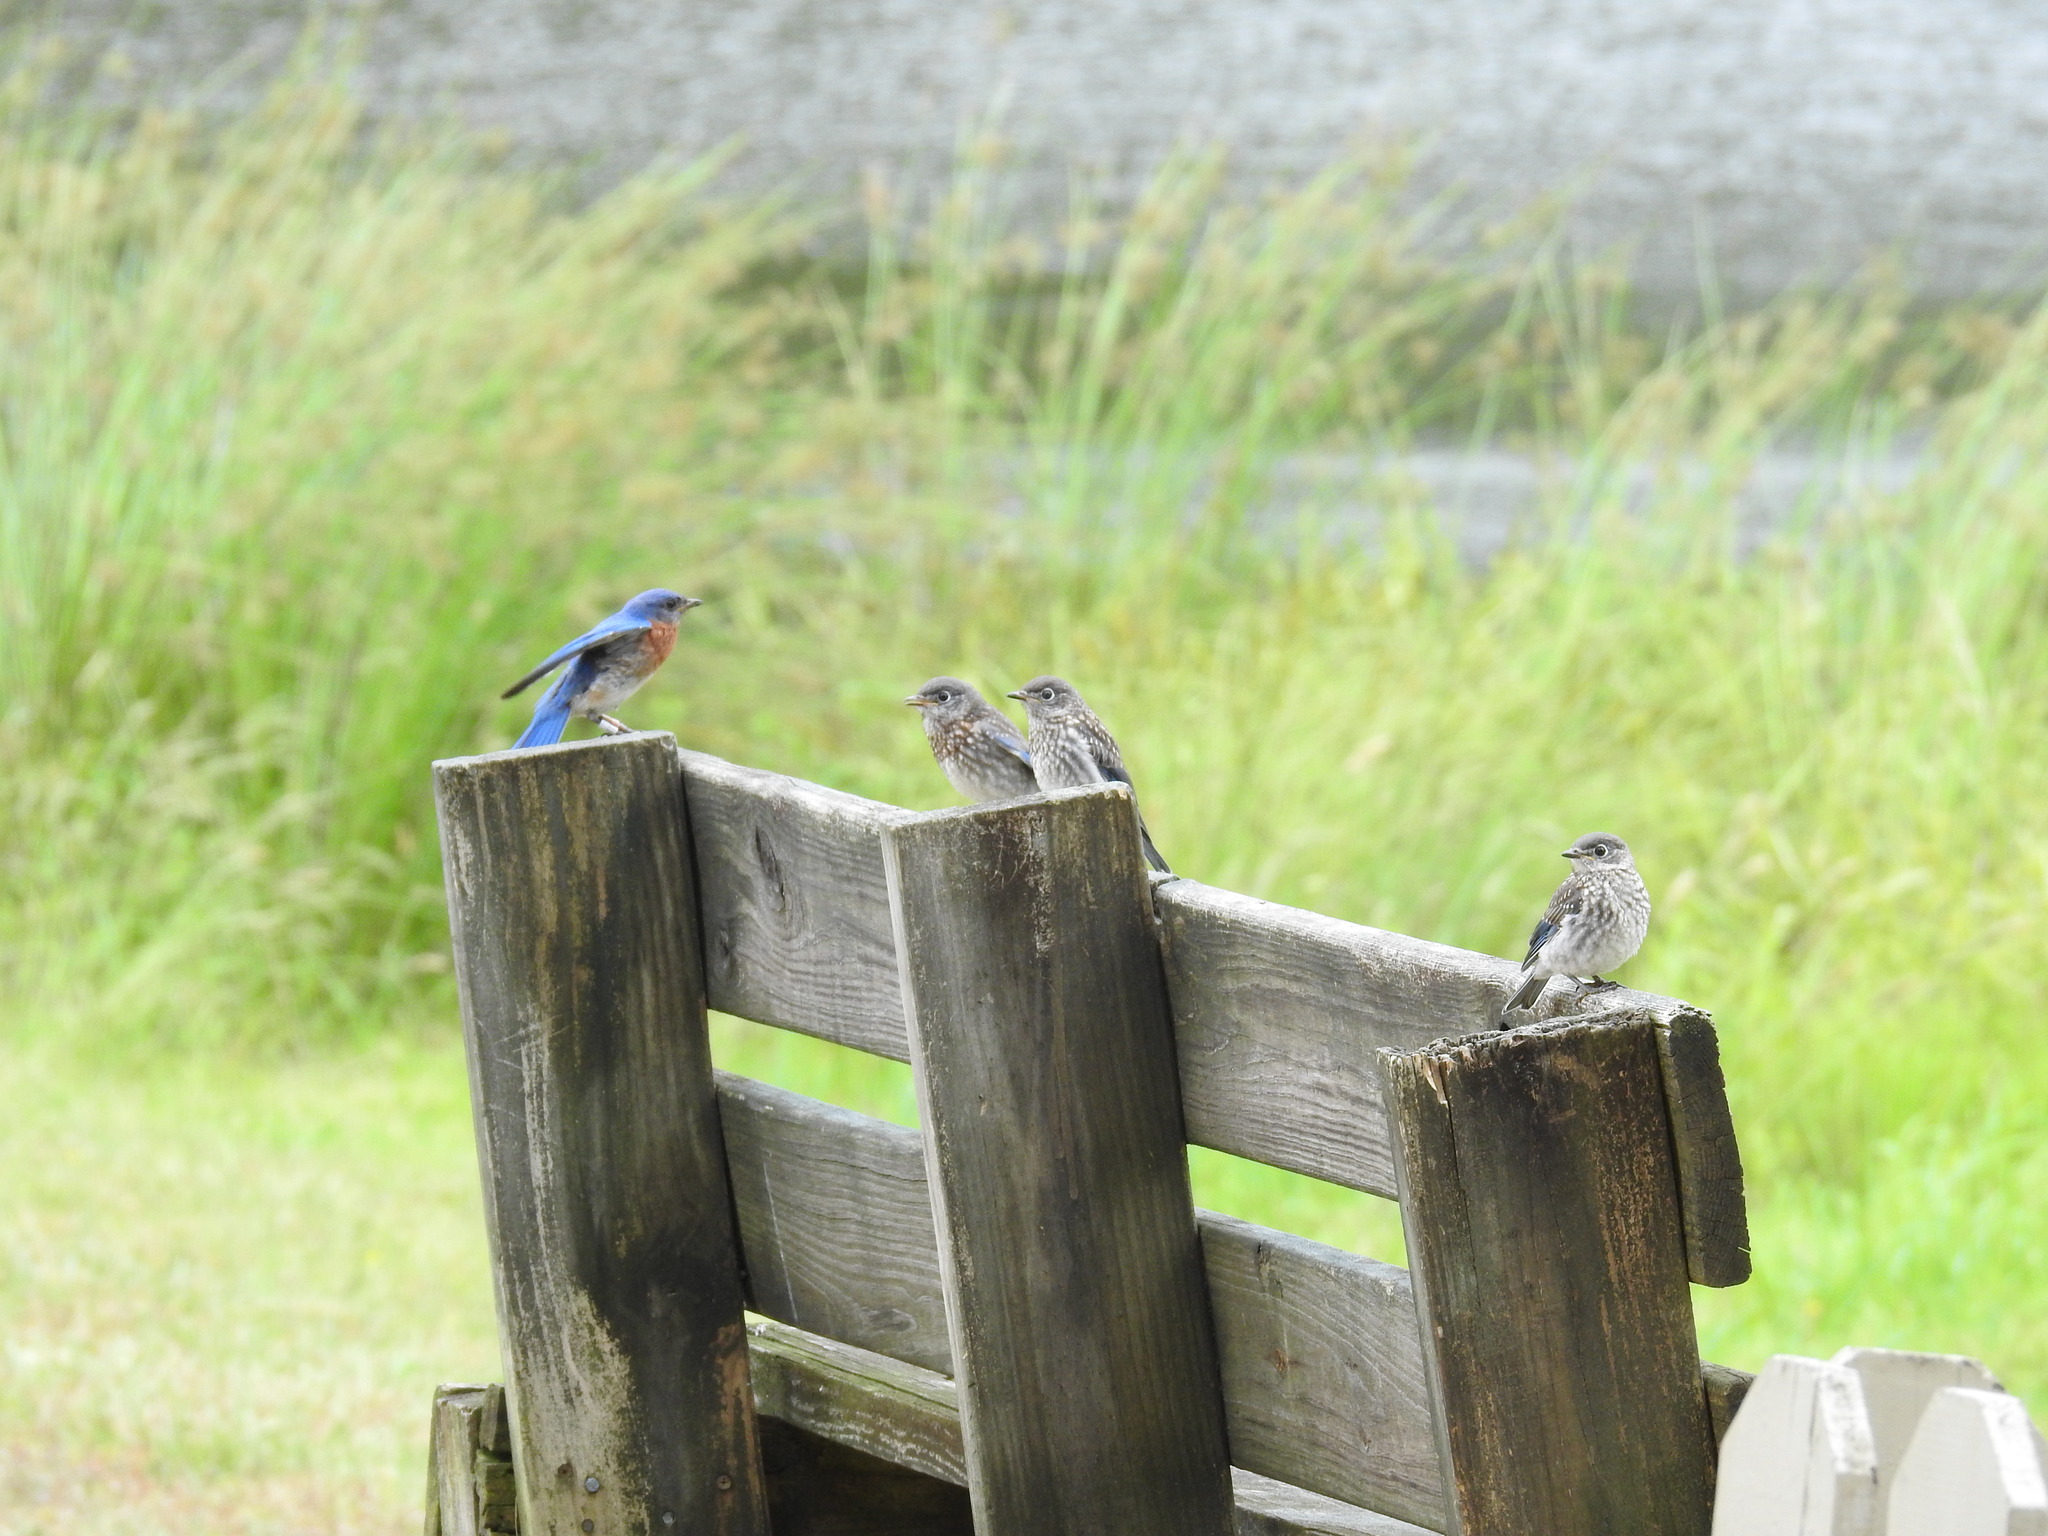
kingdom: Animalia
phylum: Chordata
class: Aves
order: Passeriformes
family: Turdidae
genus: Sialia
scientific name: Sialia sialis
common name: Eastern bluebird
